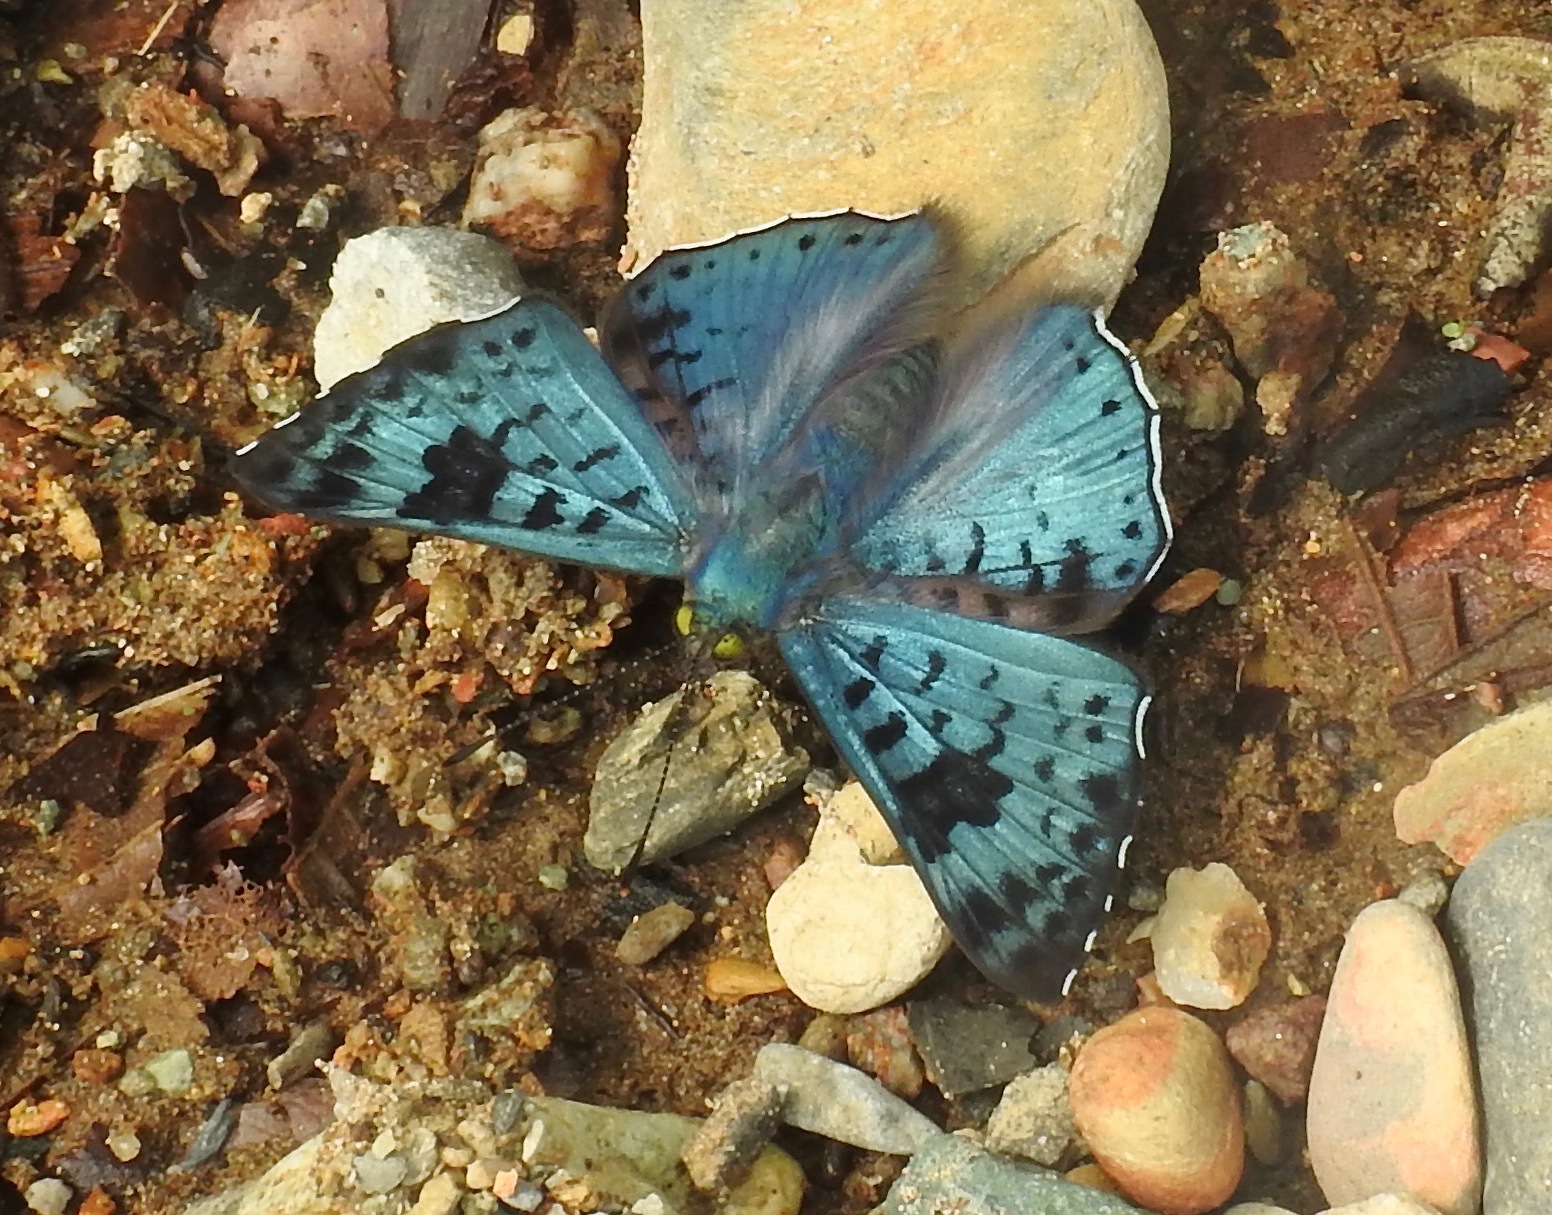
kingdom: Animalia
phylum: Arthropoda
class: Insecta
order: Lepidoptera
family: Riodinidae
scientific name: Riodinidae
